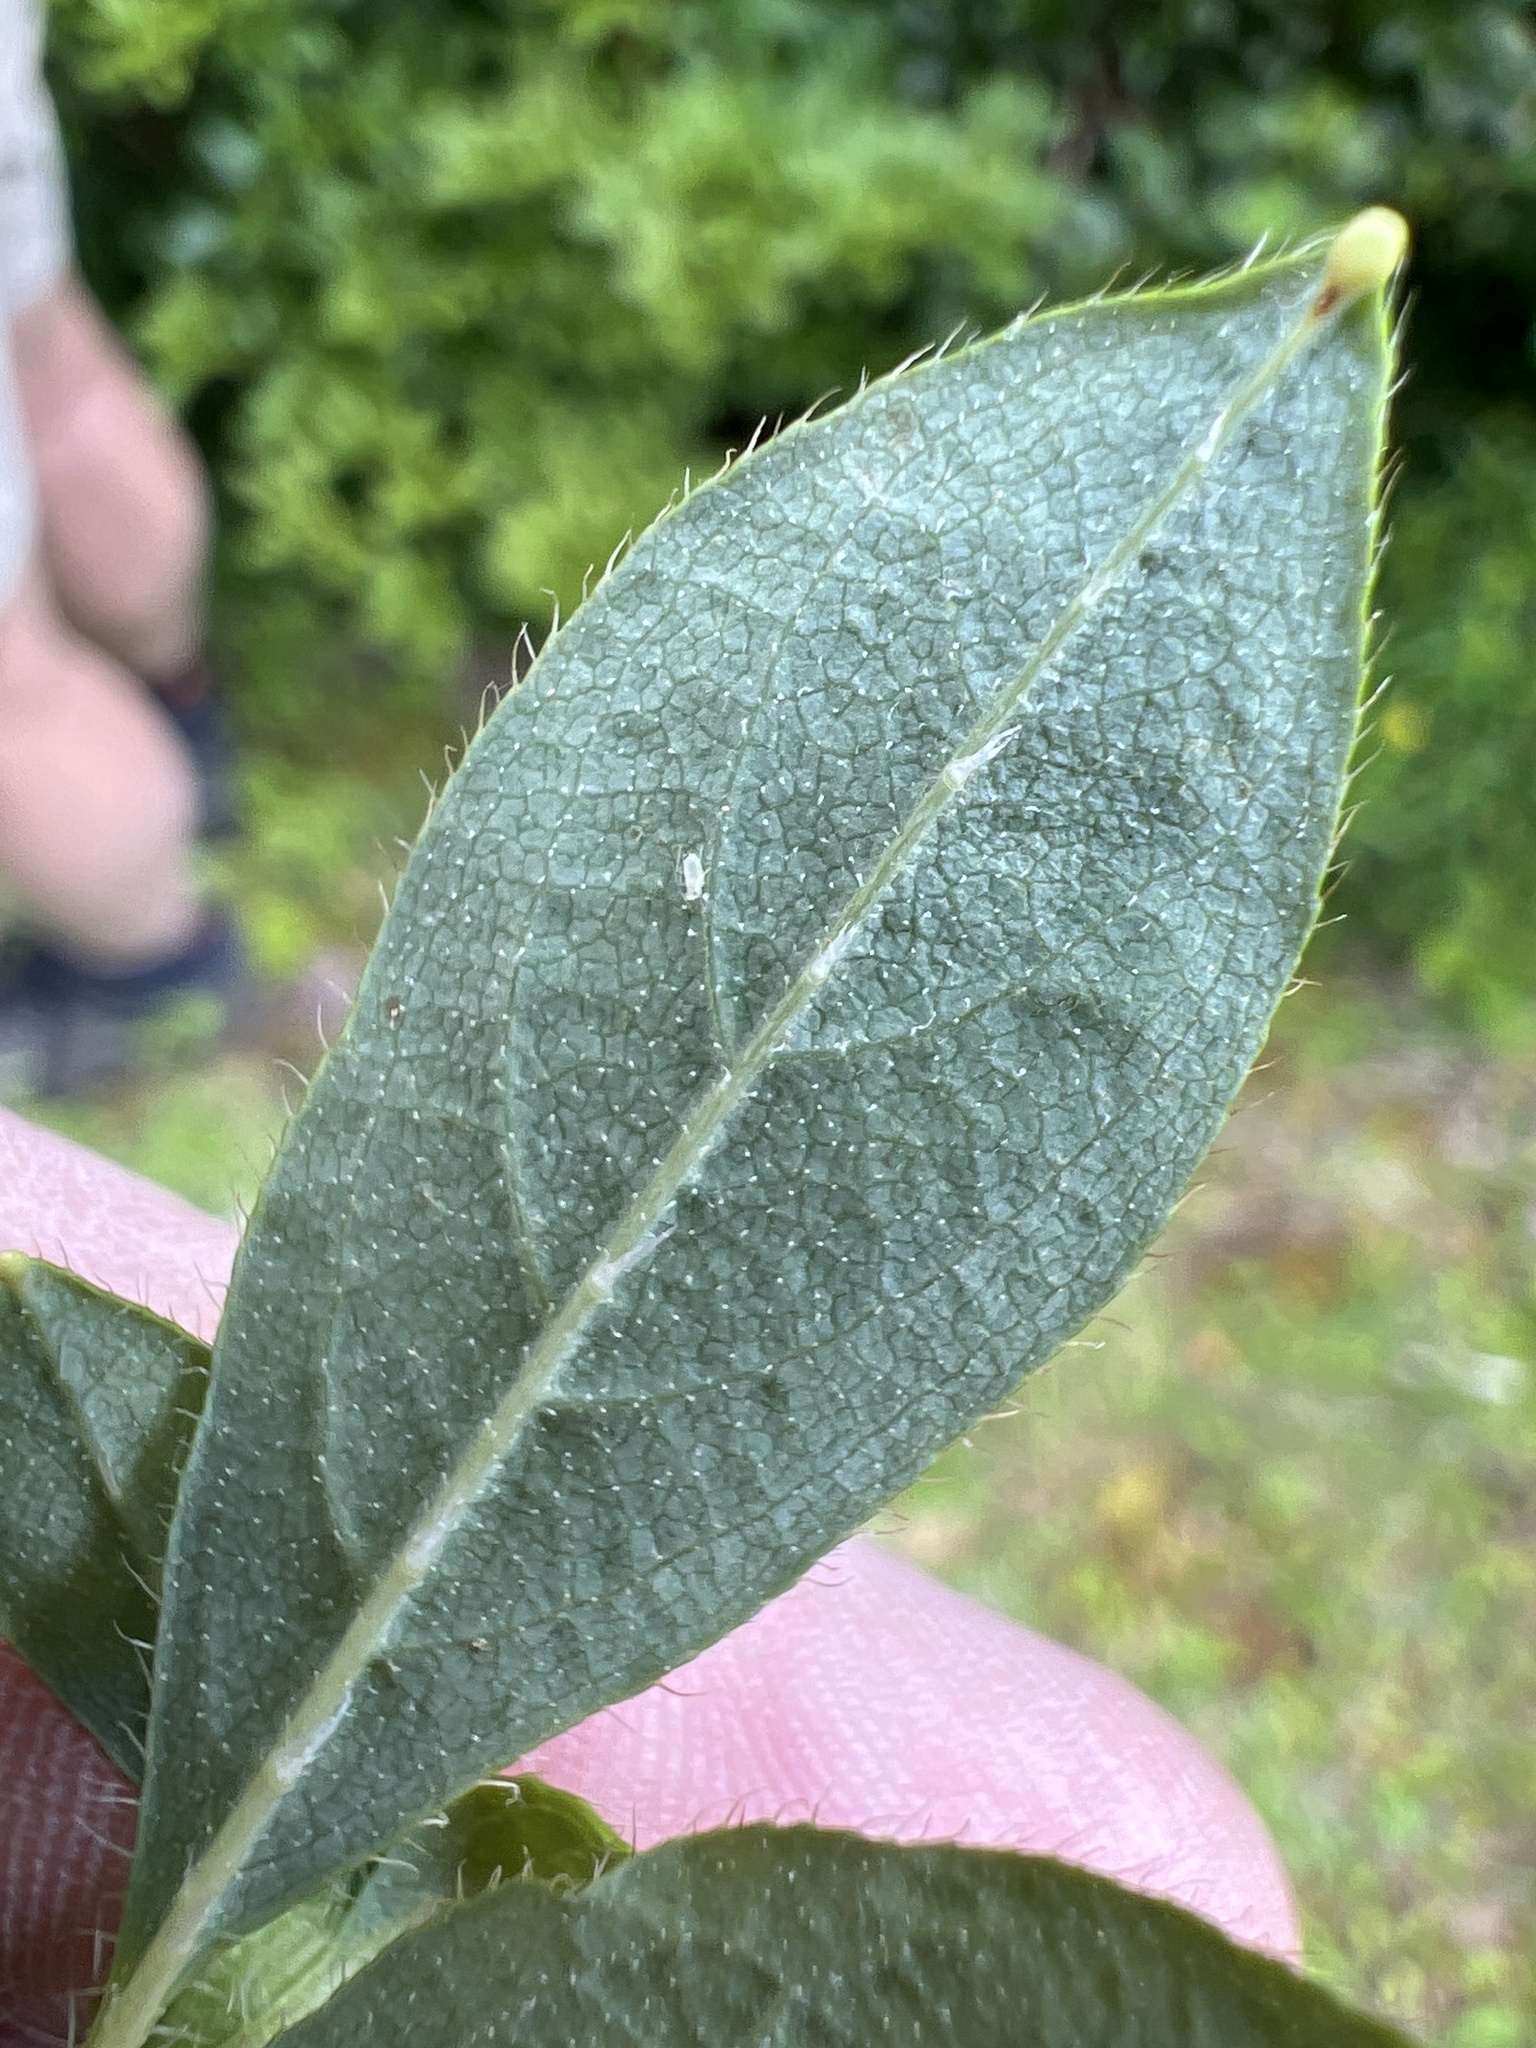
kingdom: Plantae
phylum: Tracheophyta
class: Magnoliopsida
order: Ericales
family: Ericaceae
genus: Rhododendron
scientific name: Rhododendron pilosum
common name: Hairy minniebush
